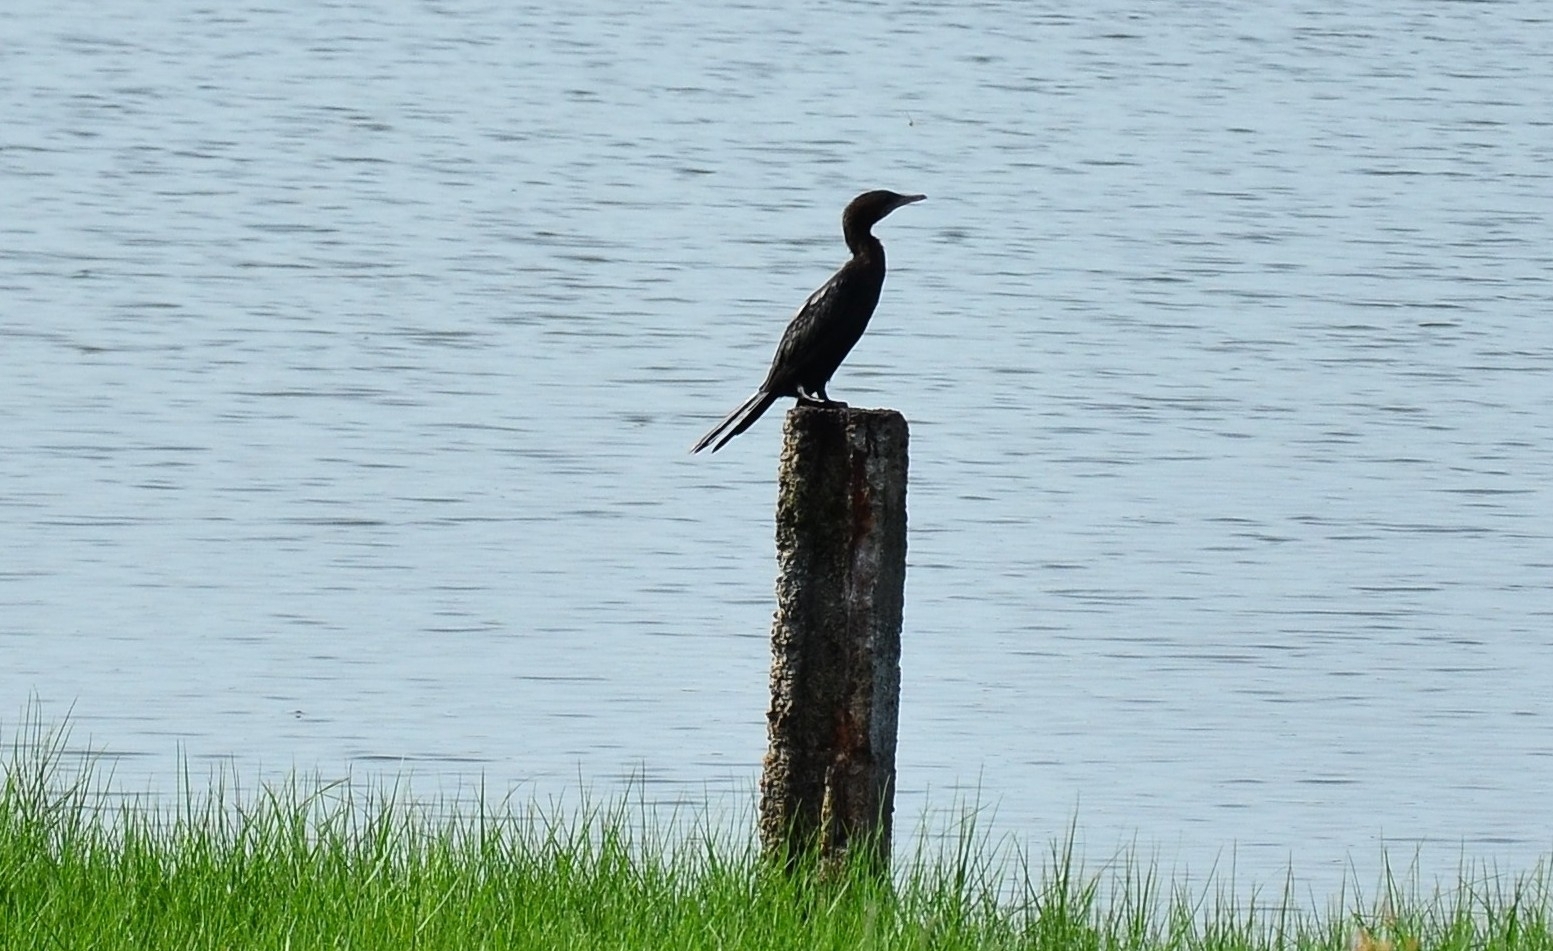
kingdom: Animalia
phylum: Chordata
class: Aves
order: Suliformes
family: Phalacrocoracidae
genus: Microcarbo
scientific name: Microcarbo niger
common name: Little cormorant
